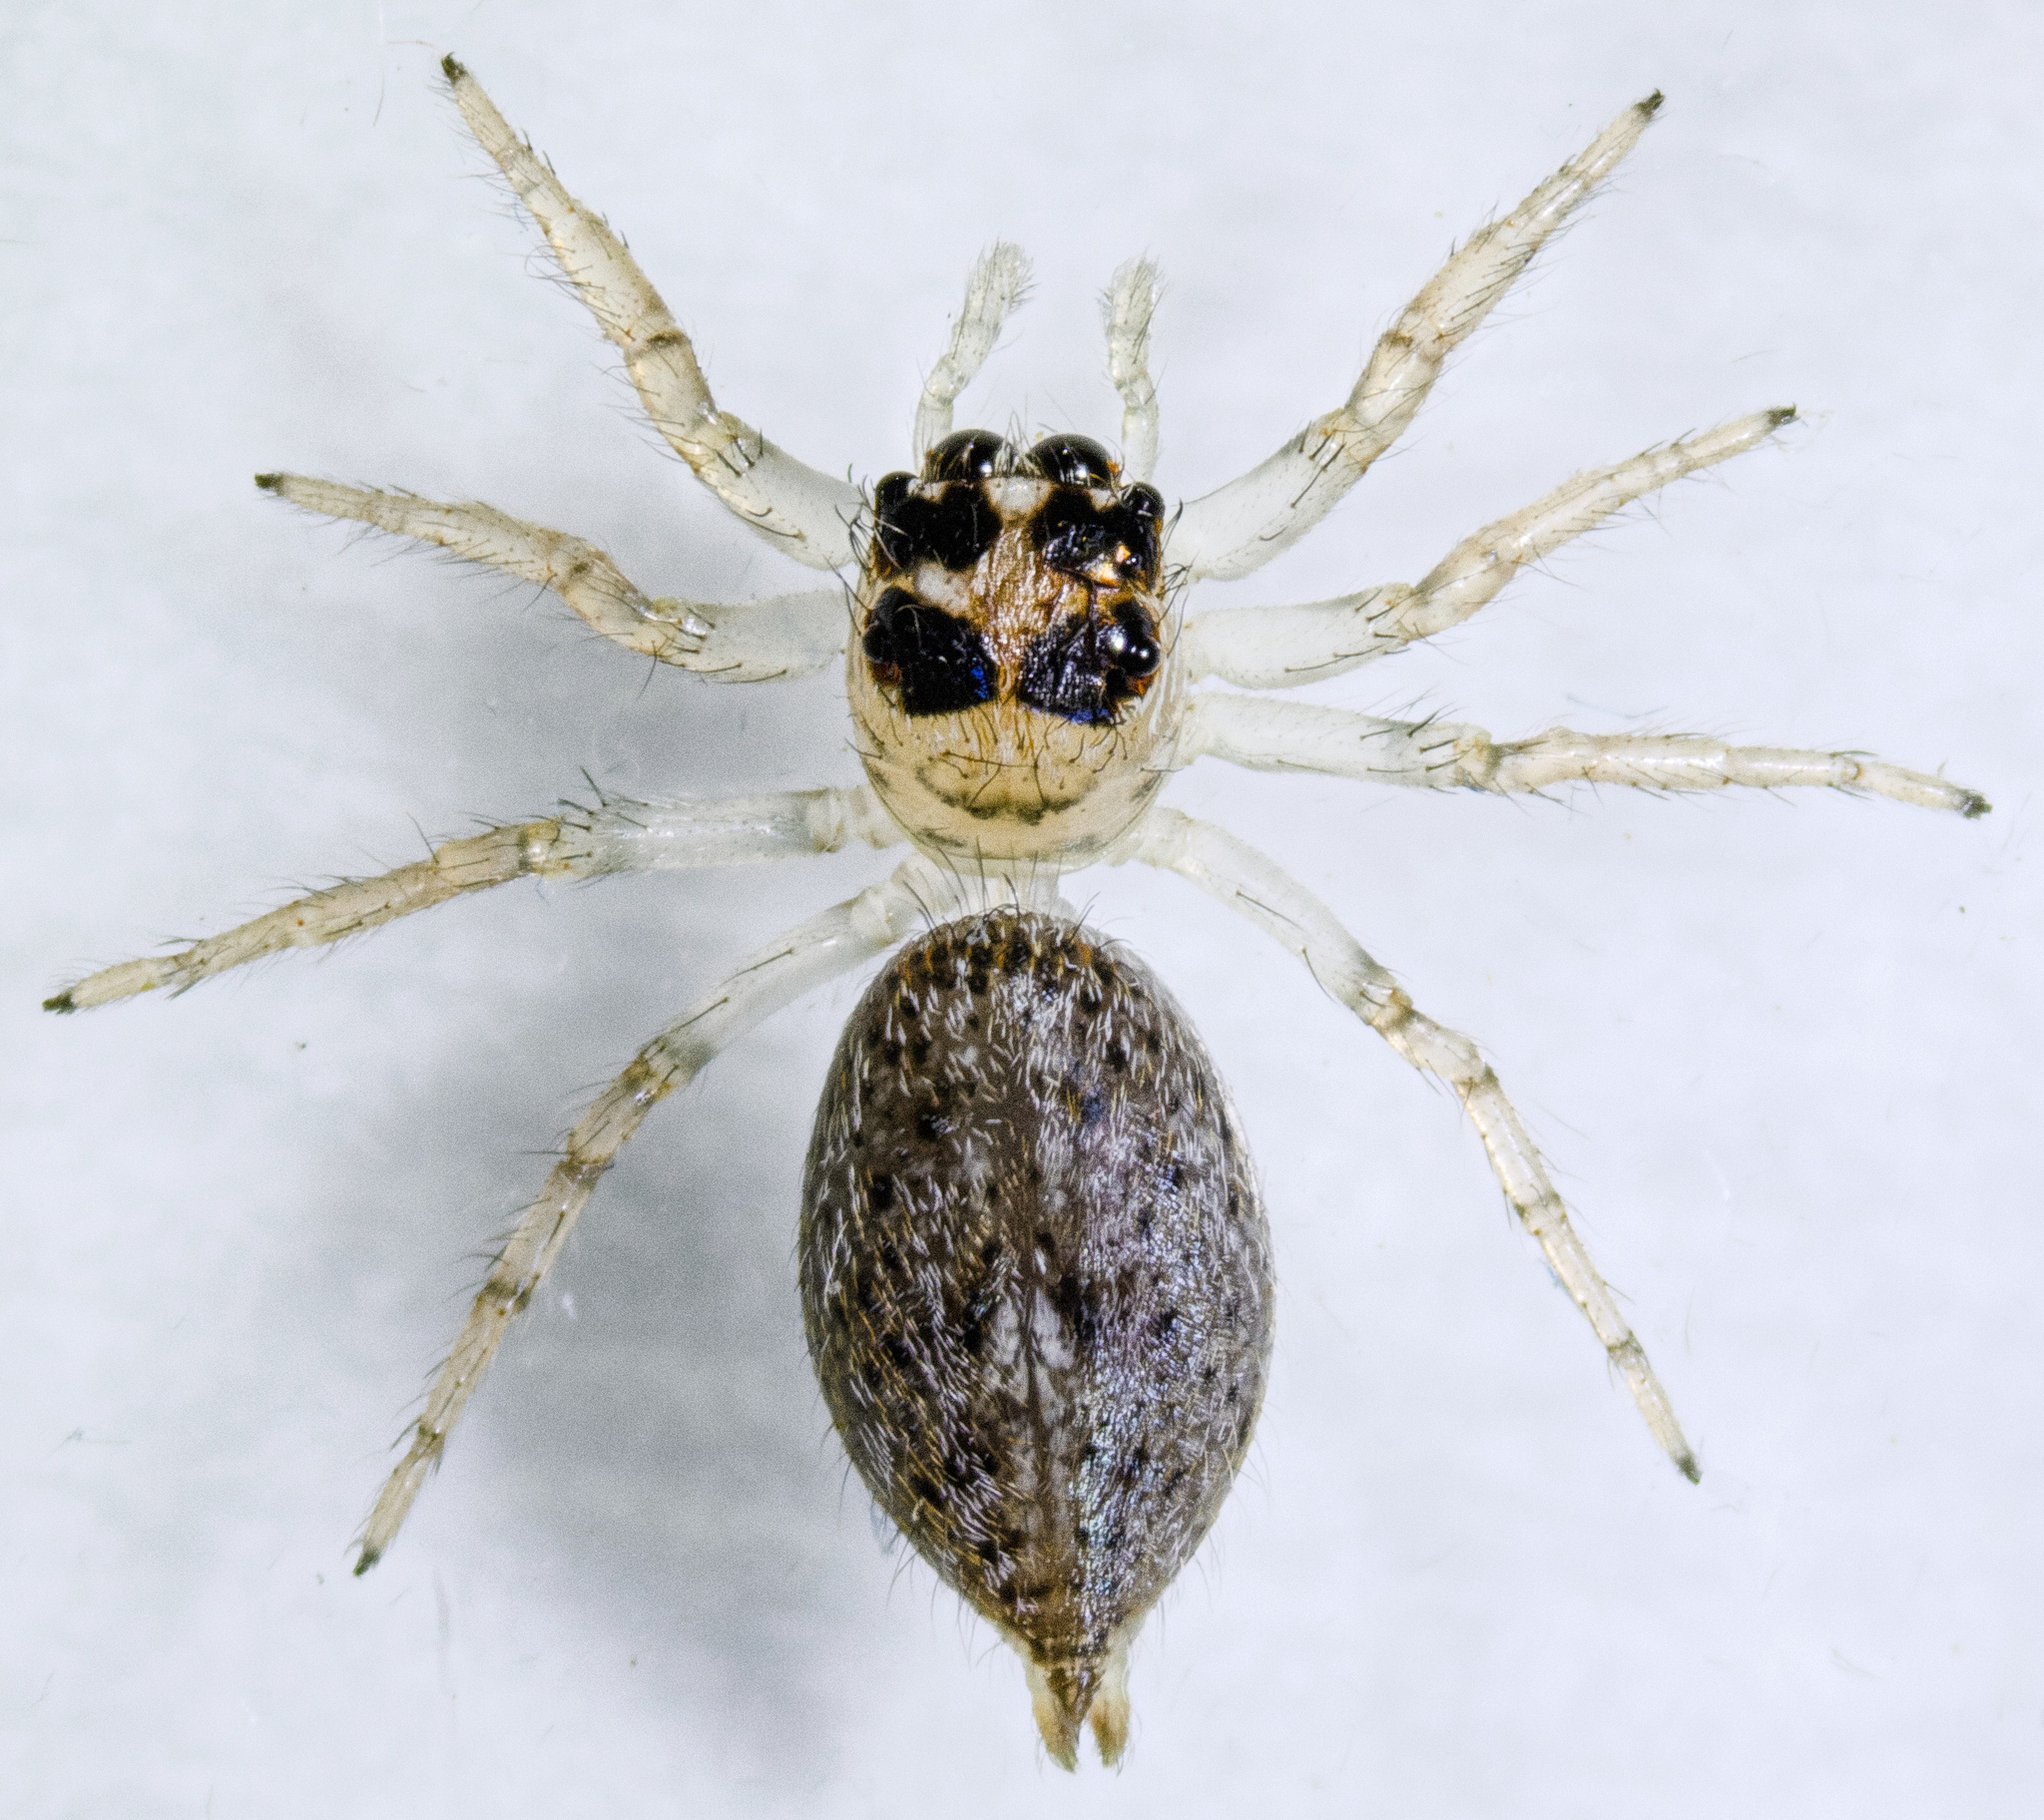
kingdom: Animalia
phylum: Arthropoda
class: Arachnida
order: Araneae
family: Salticidae
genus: Colonus
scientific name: Colonus hesperus
